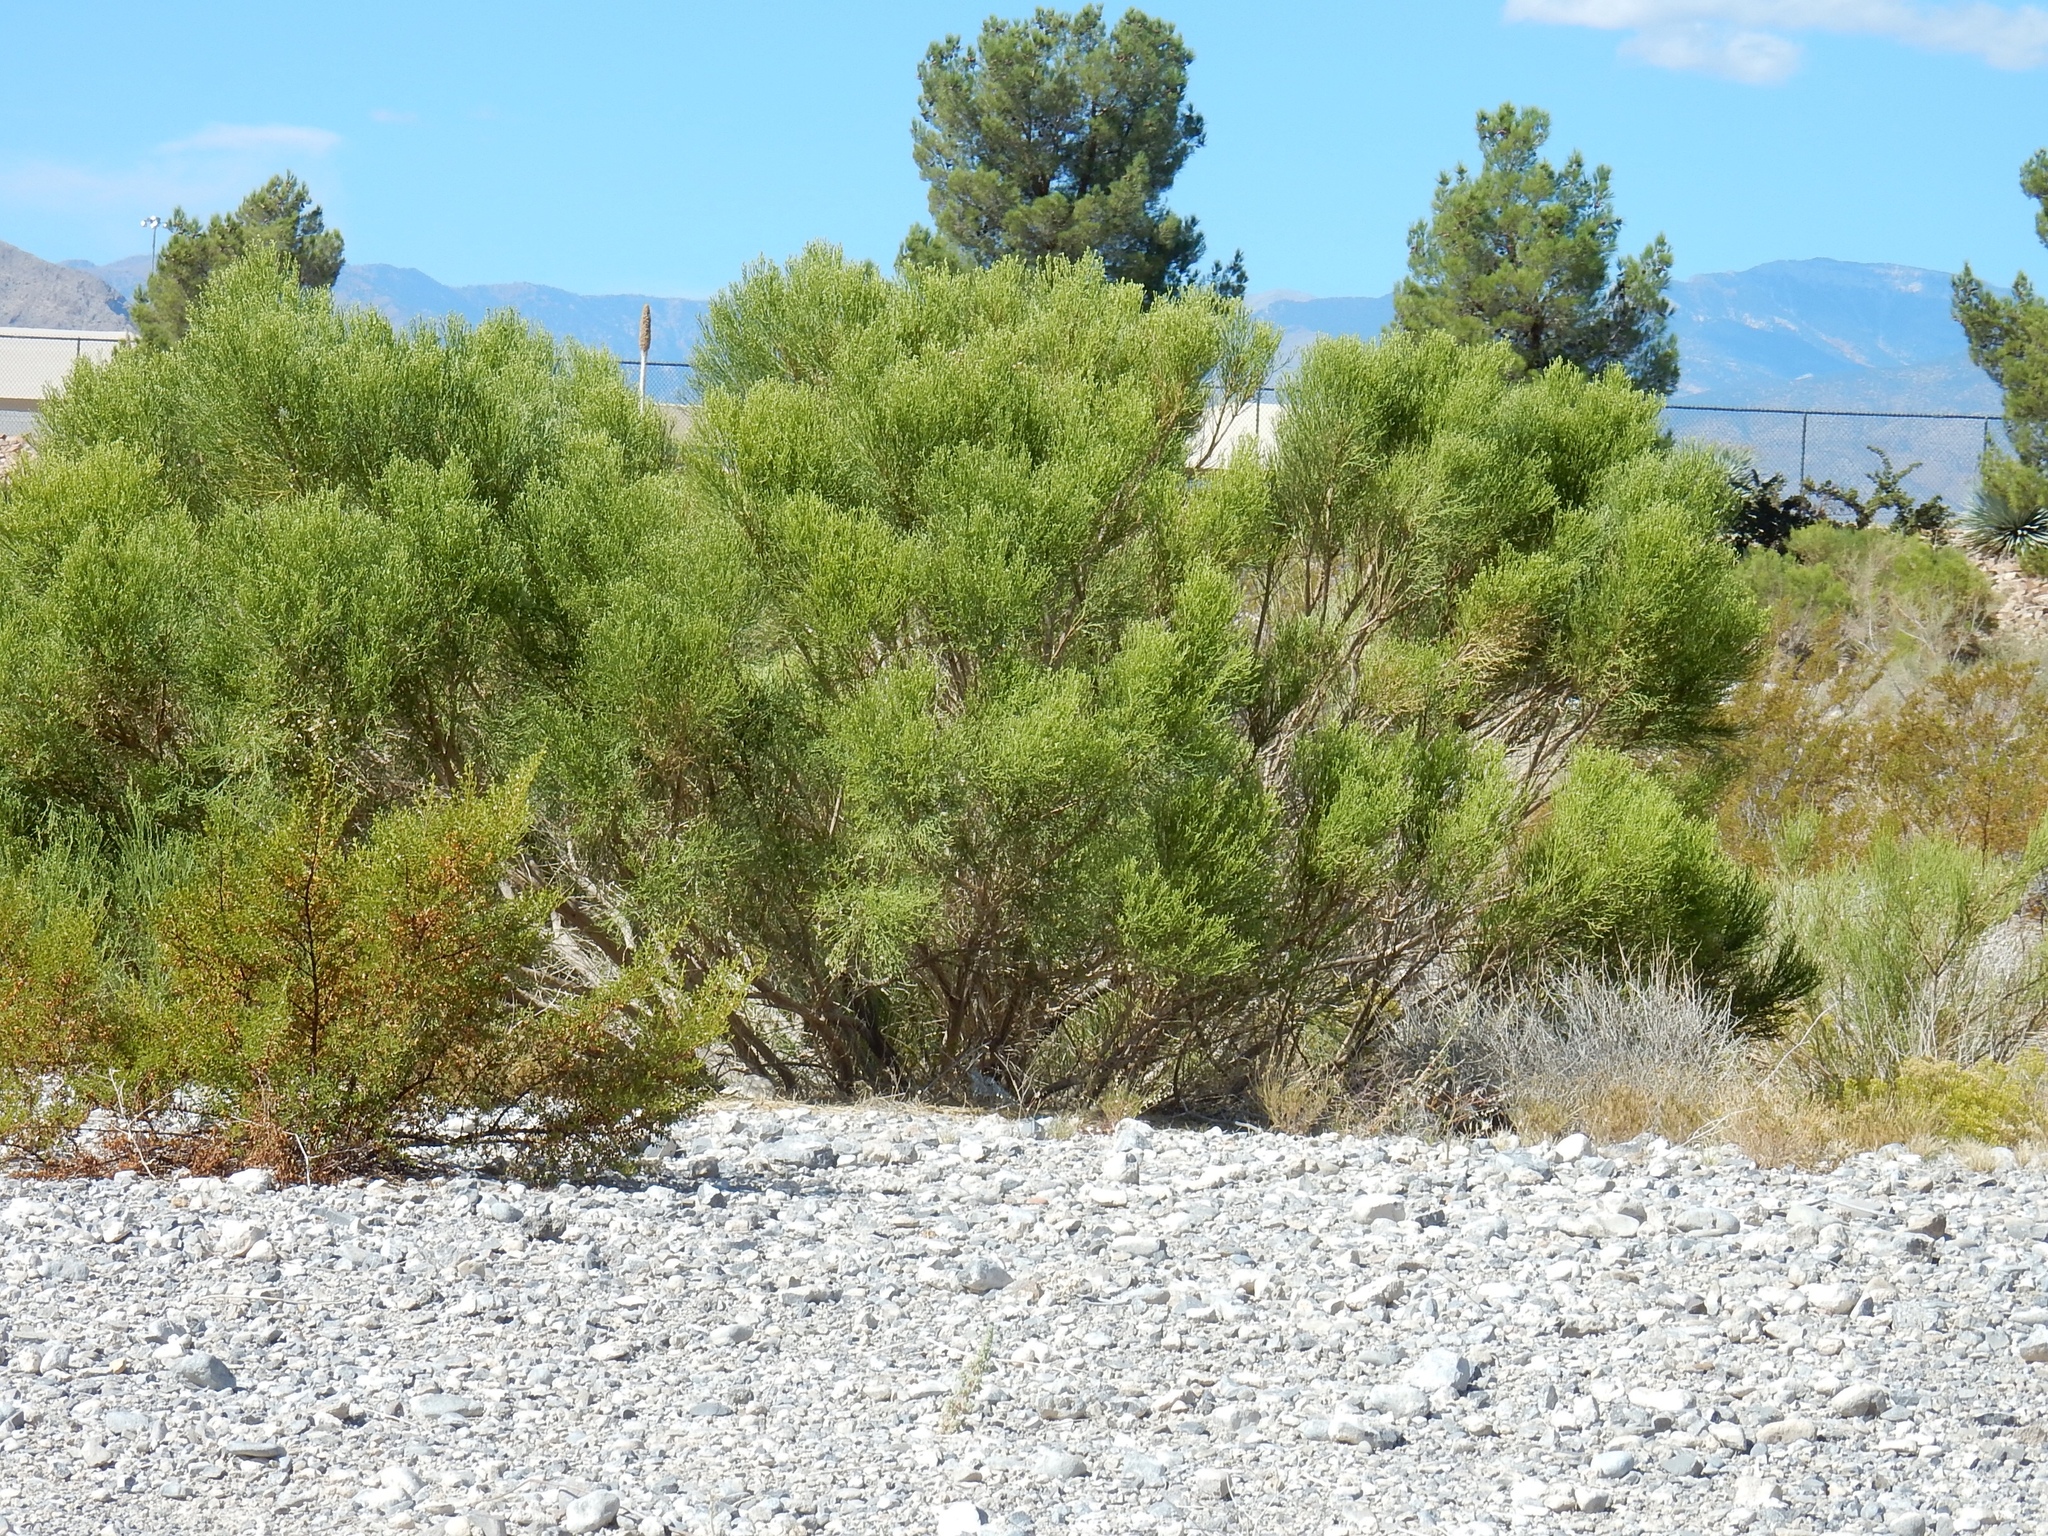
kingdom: Plantae
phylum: Tracheophyta
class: Magnoliopsida
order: Asterales
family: Asteraceae
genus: Baccharis
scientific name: Baccharis sarothroides
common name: Desert-broom
